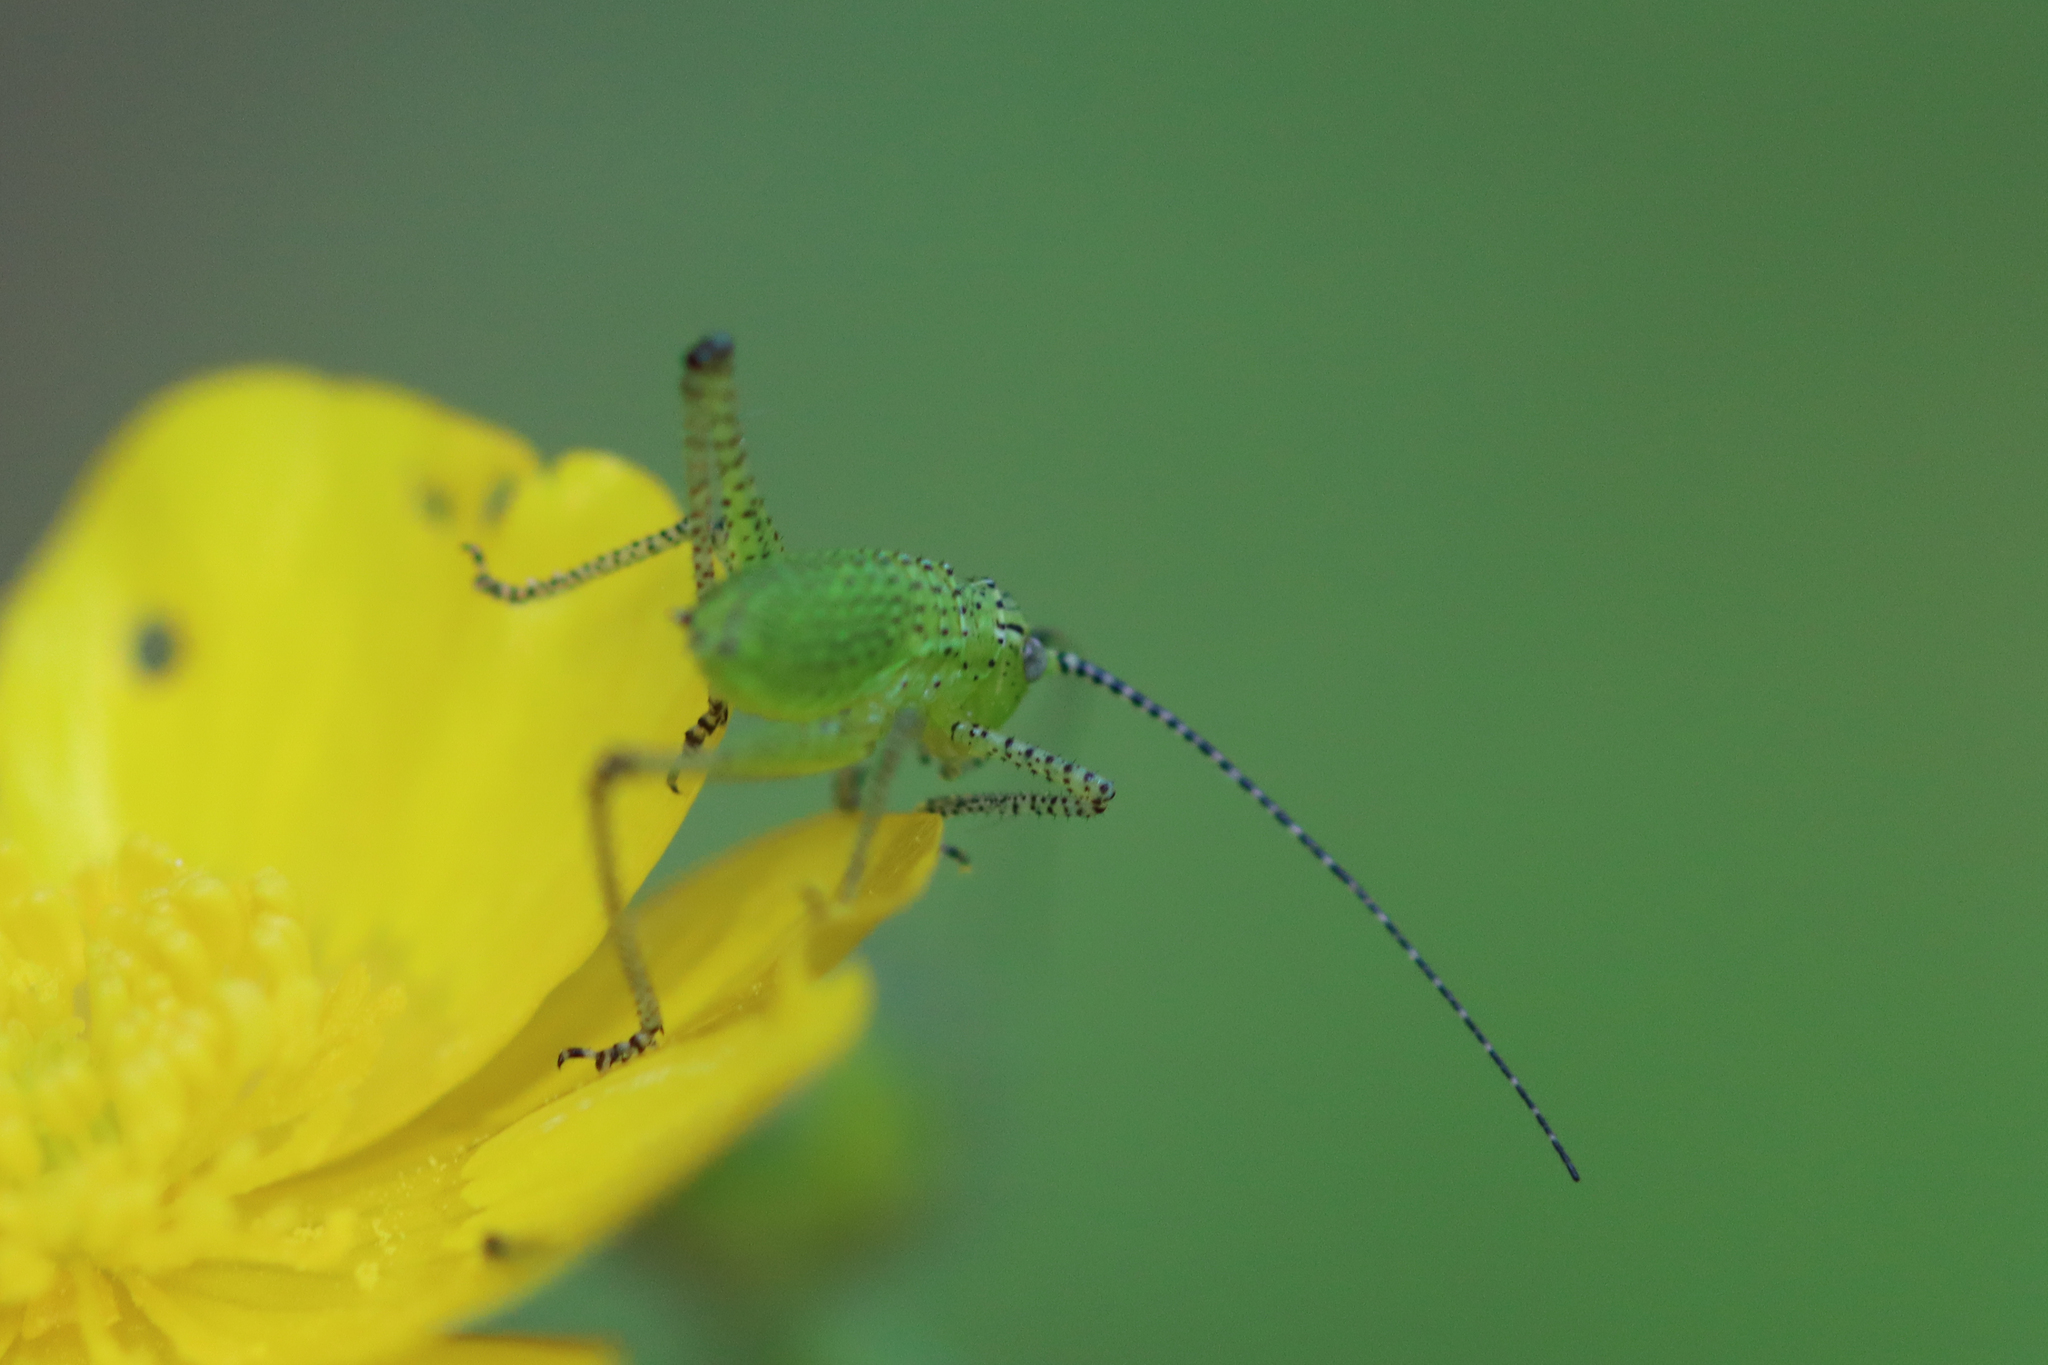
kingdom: Animalia
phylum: Arthropoda
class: Insecta
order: Orthoptera
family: Tettigoniidae
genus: Leptophyes
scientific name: Leptophyes punctatissima
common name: Speckled bush-cricket
